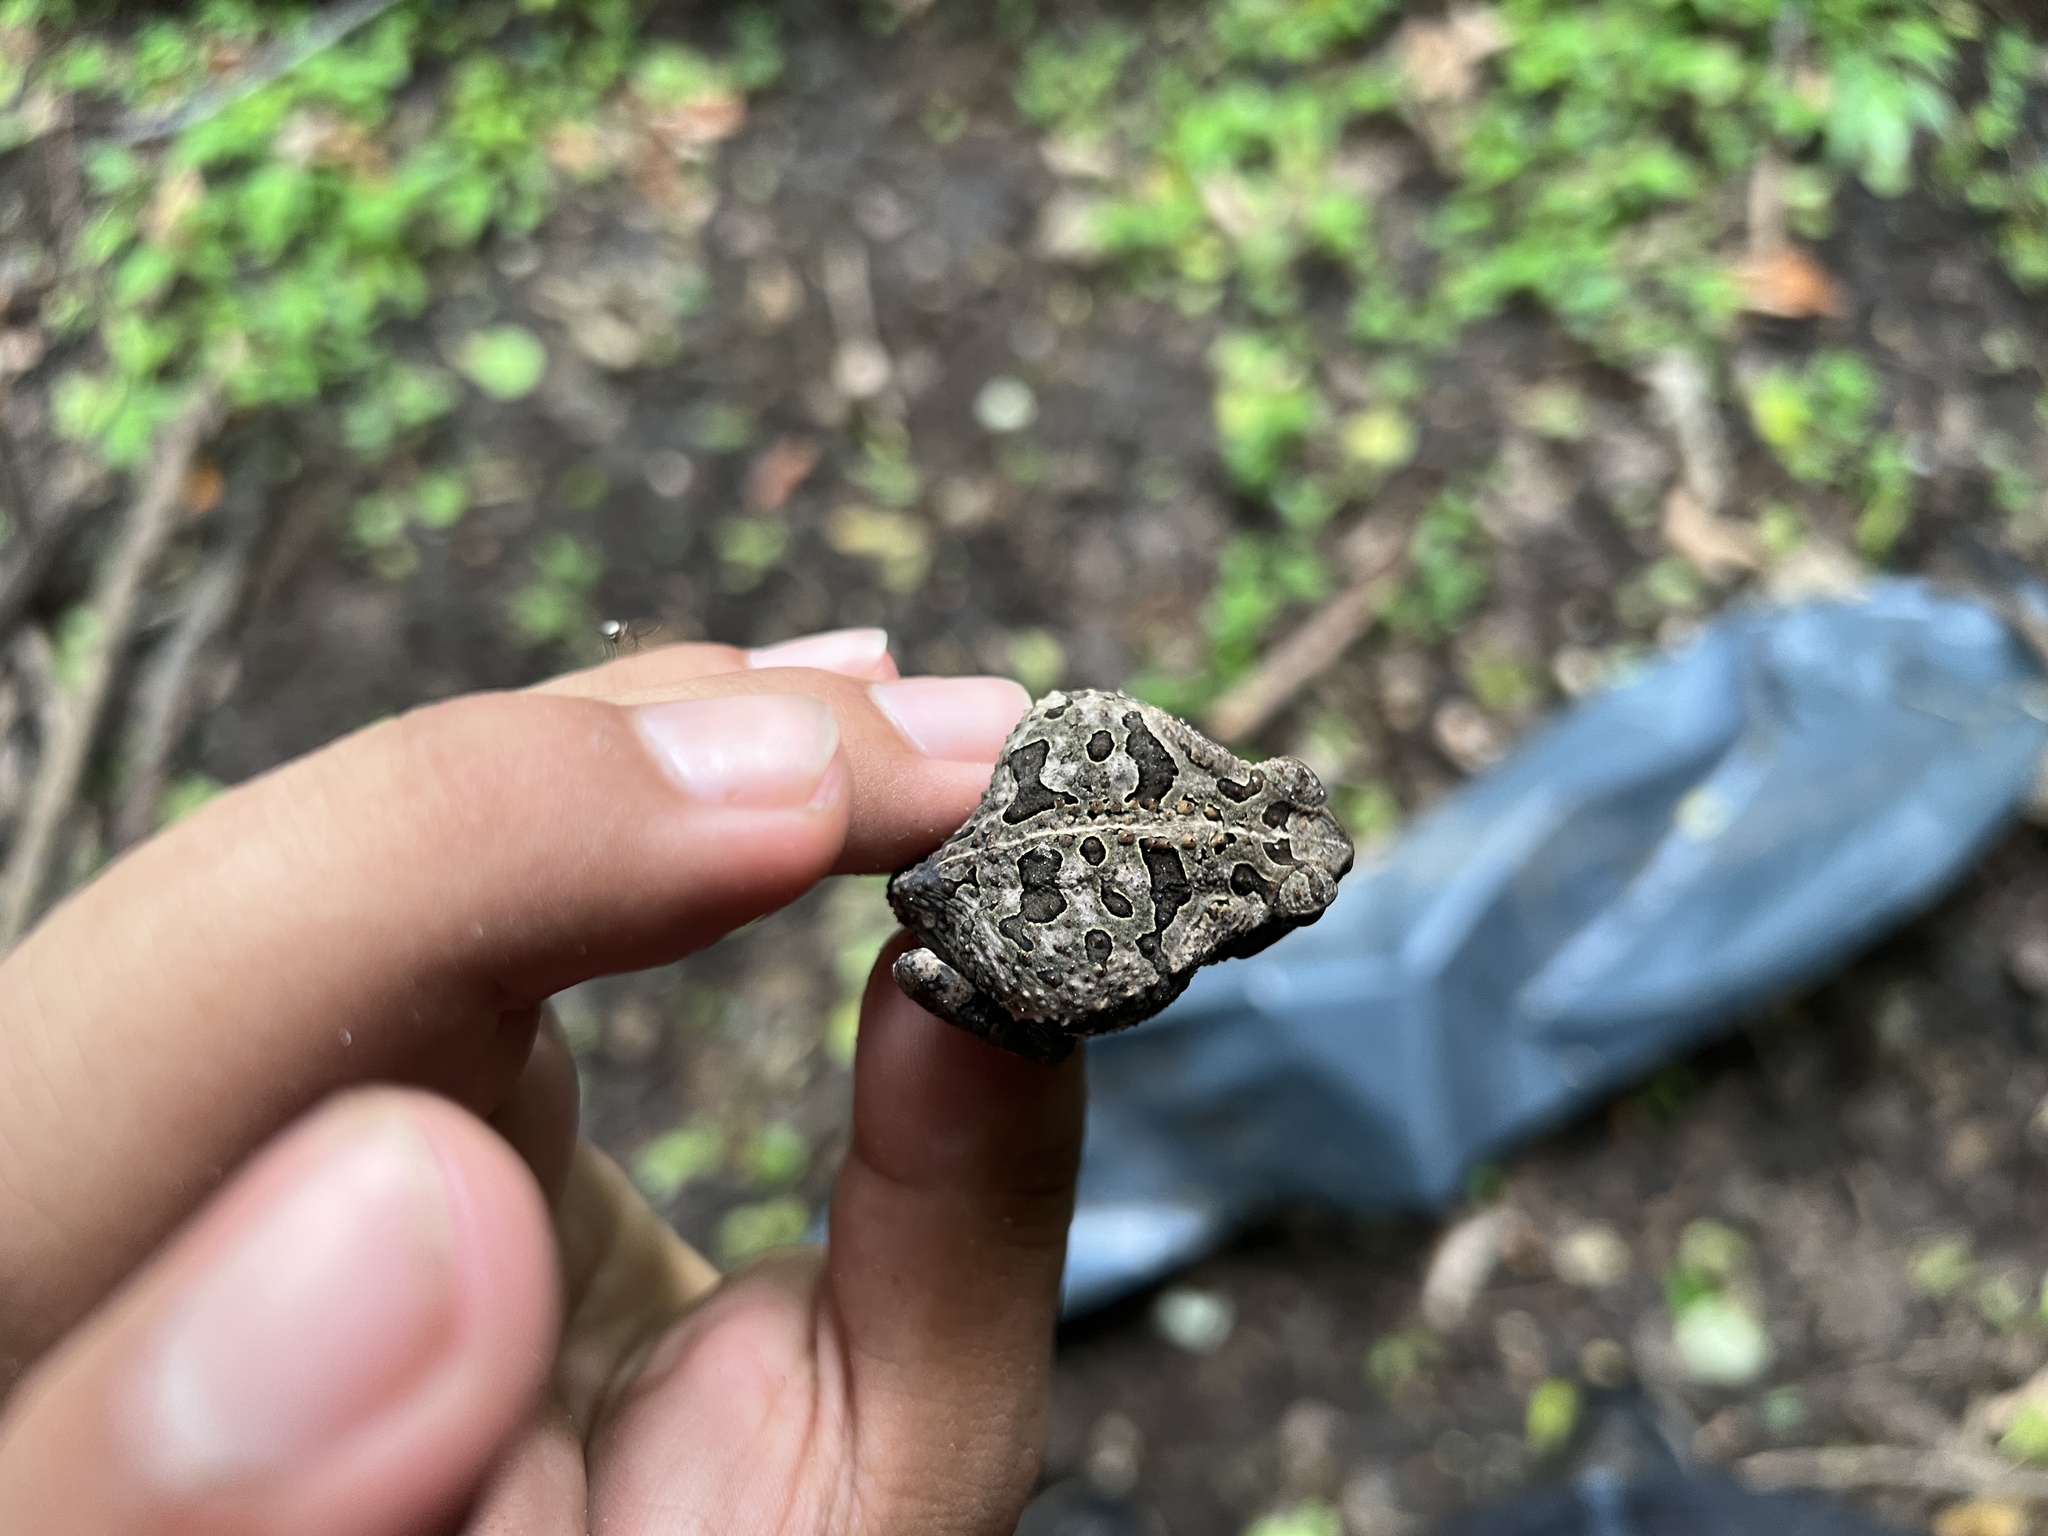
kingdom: Animalia
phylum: Chordata
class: Amphibia
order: Anura
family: Bufonidae
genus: Rhinella
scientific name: Rhinella diptycha
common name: Cope's toad
